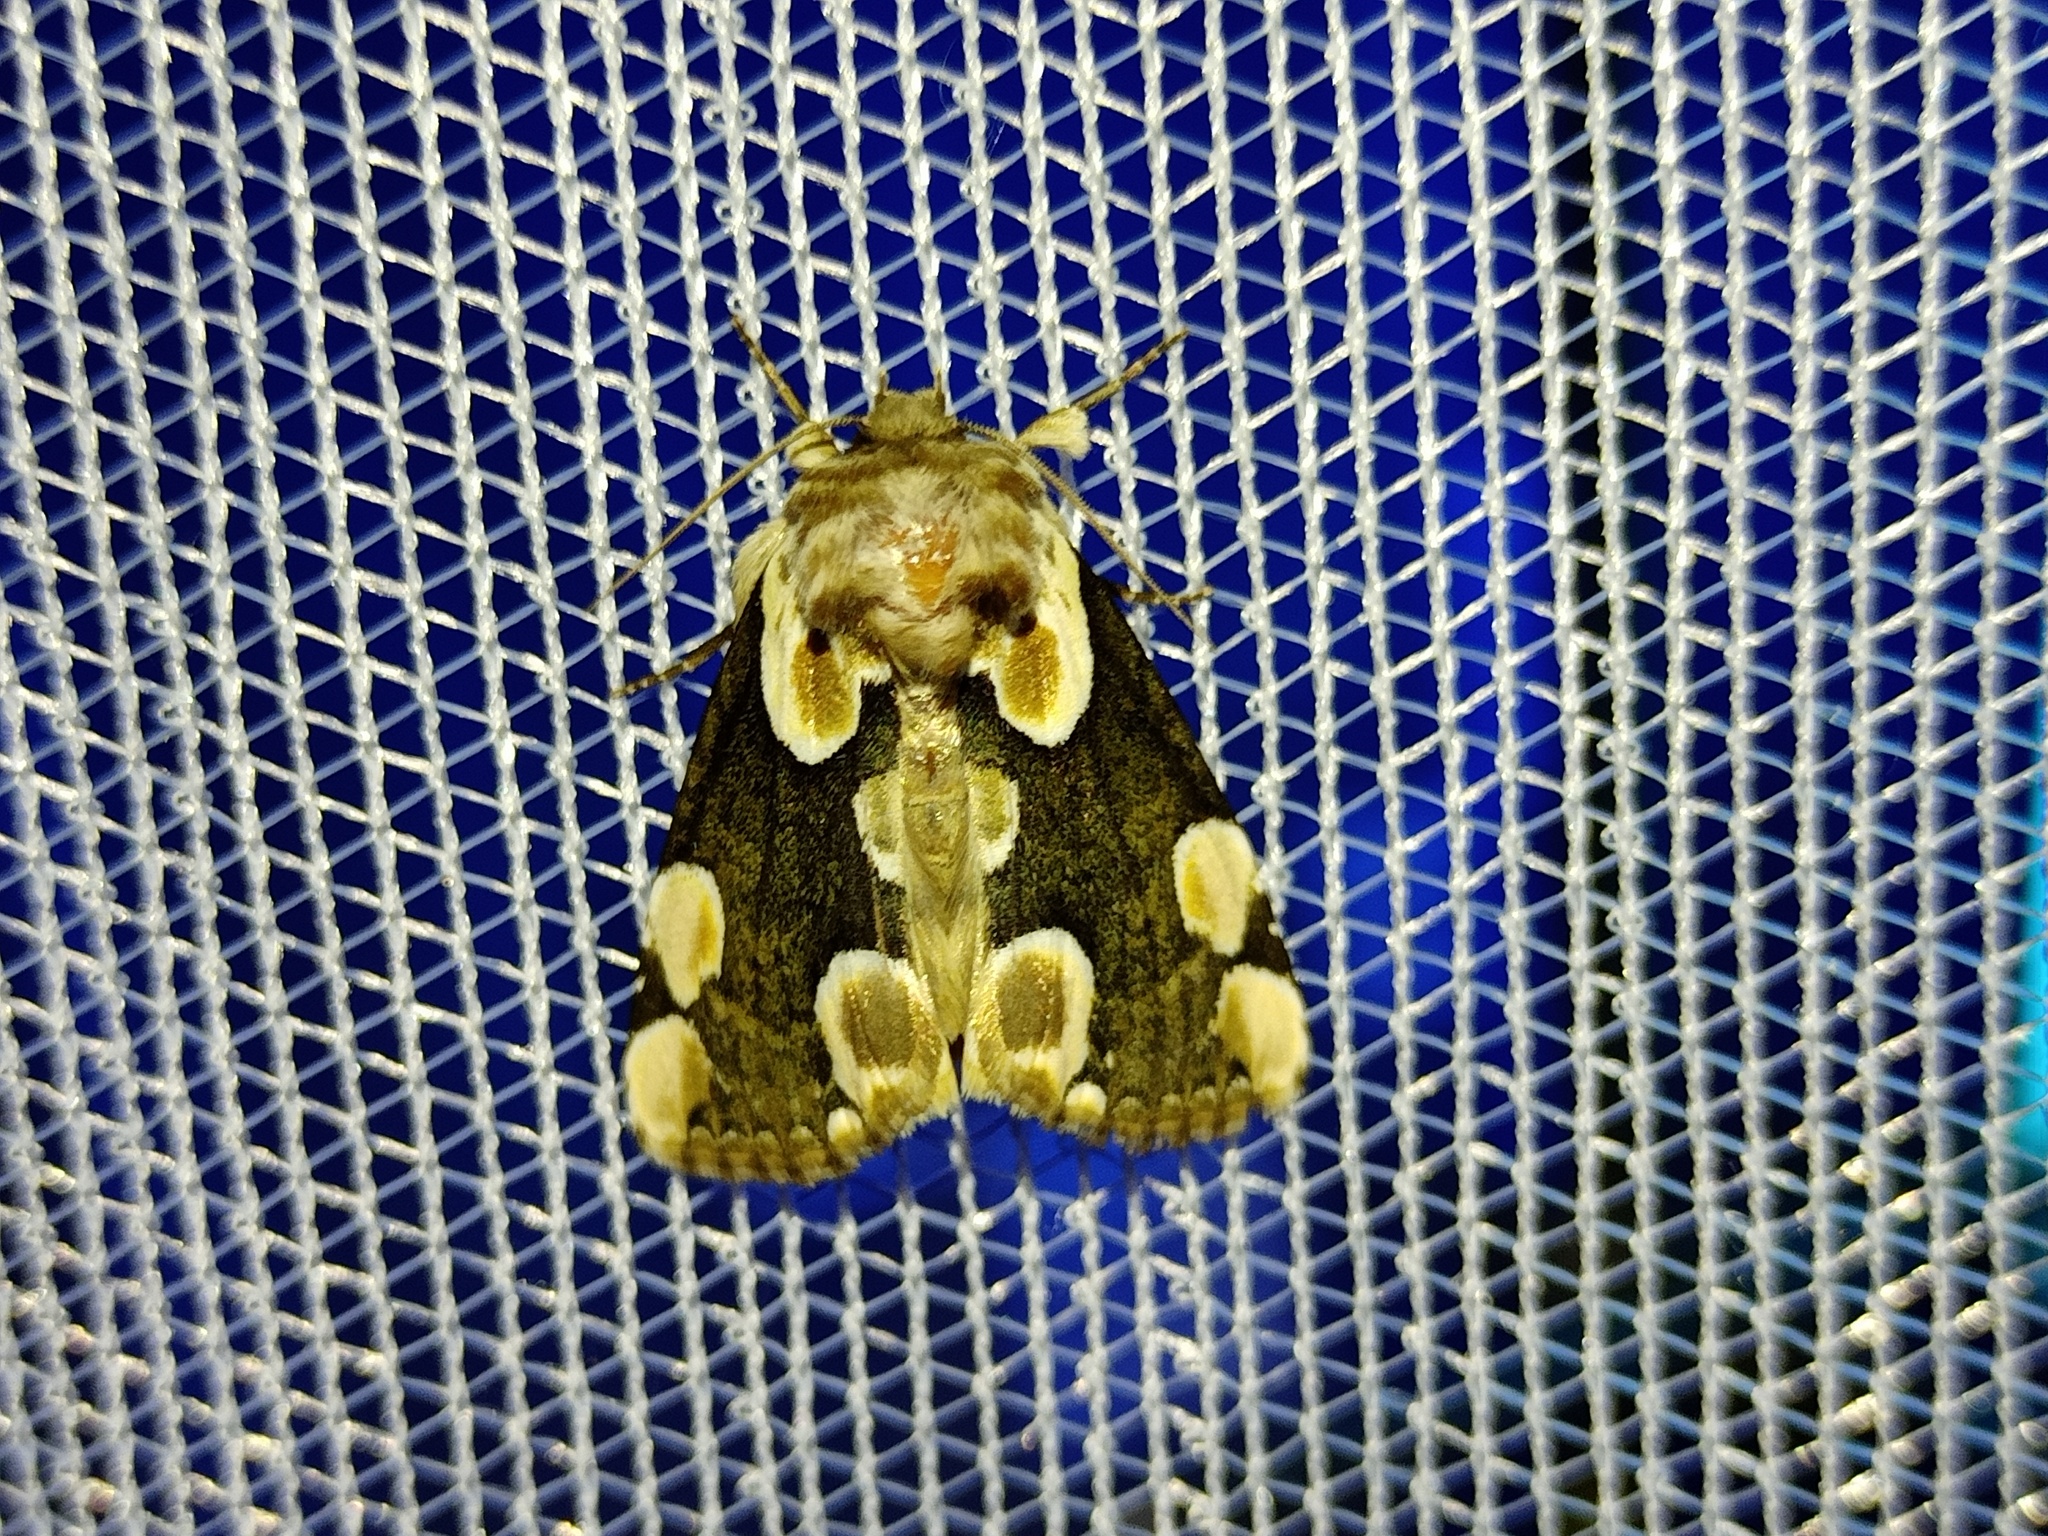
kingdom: Animalia
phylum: Arthropoda
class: Insecta
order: Lepidoptera
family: Drepanidae
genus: Thyatira
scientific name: Thyatira batis
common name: Peach blossom
